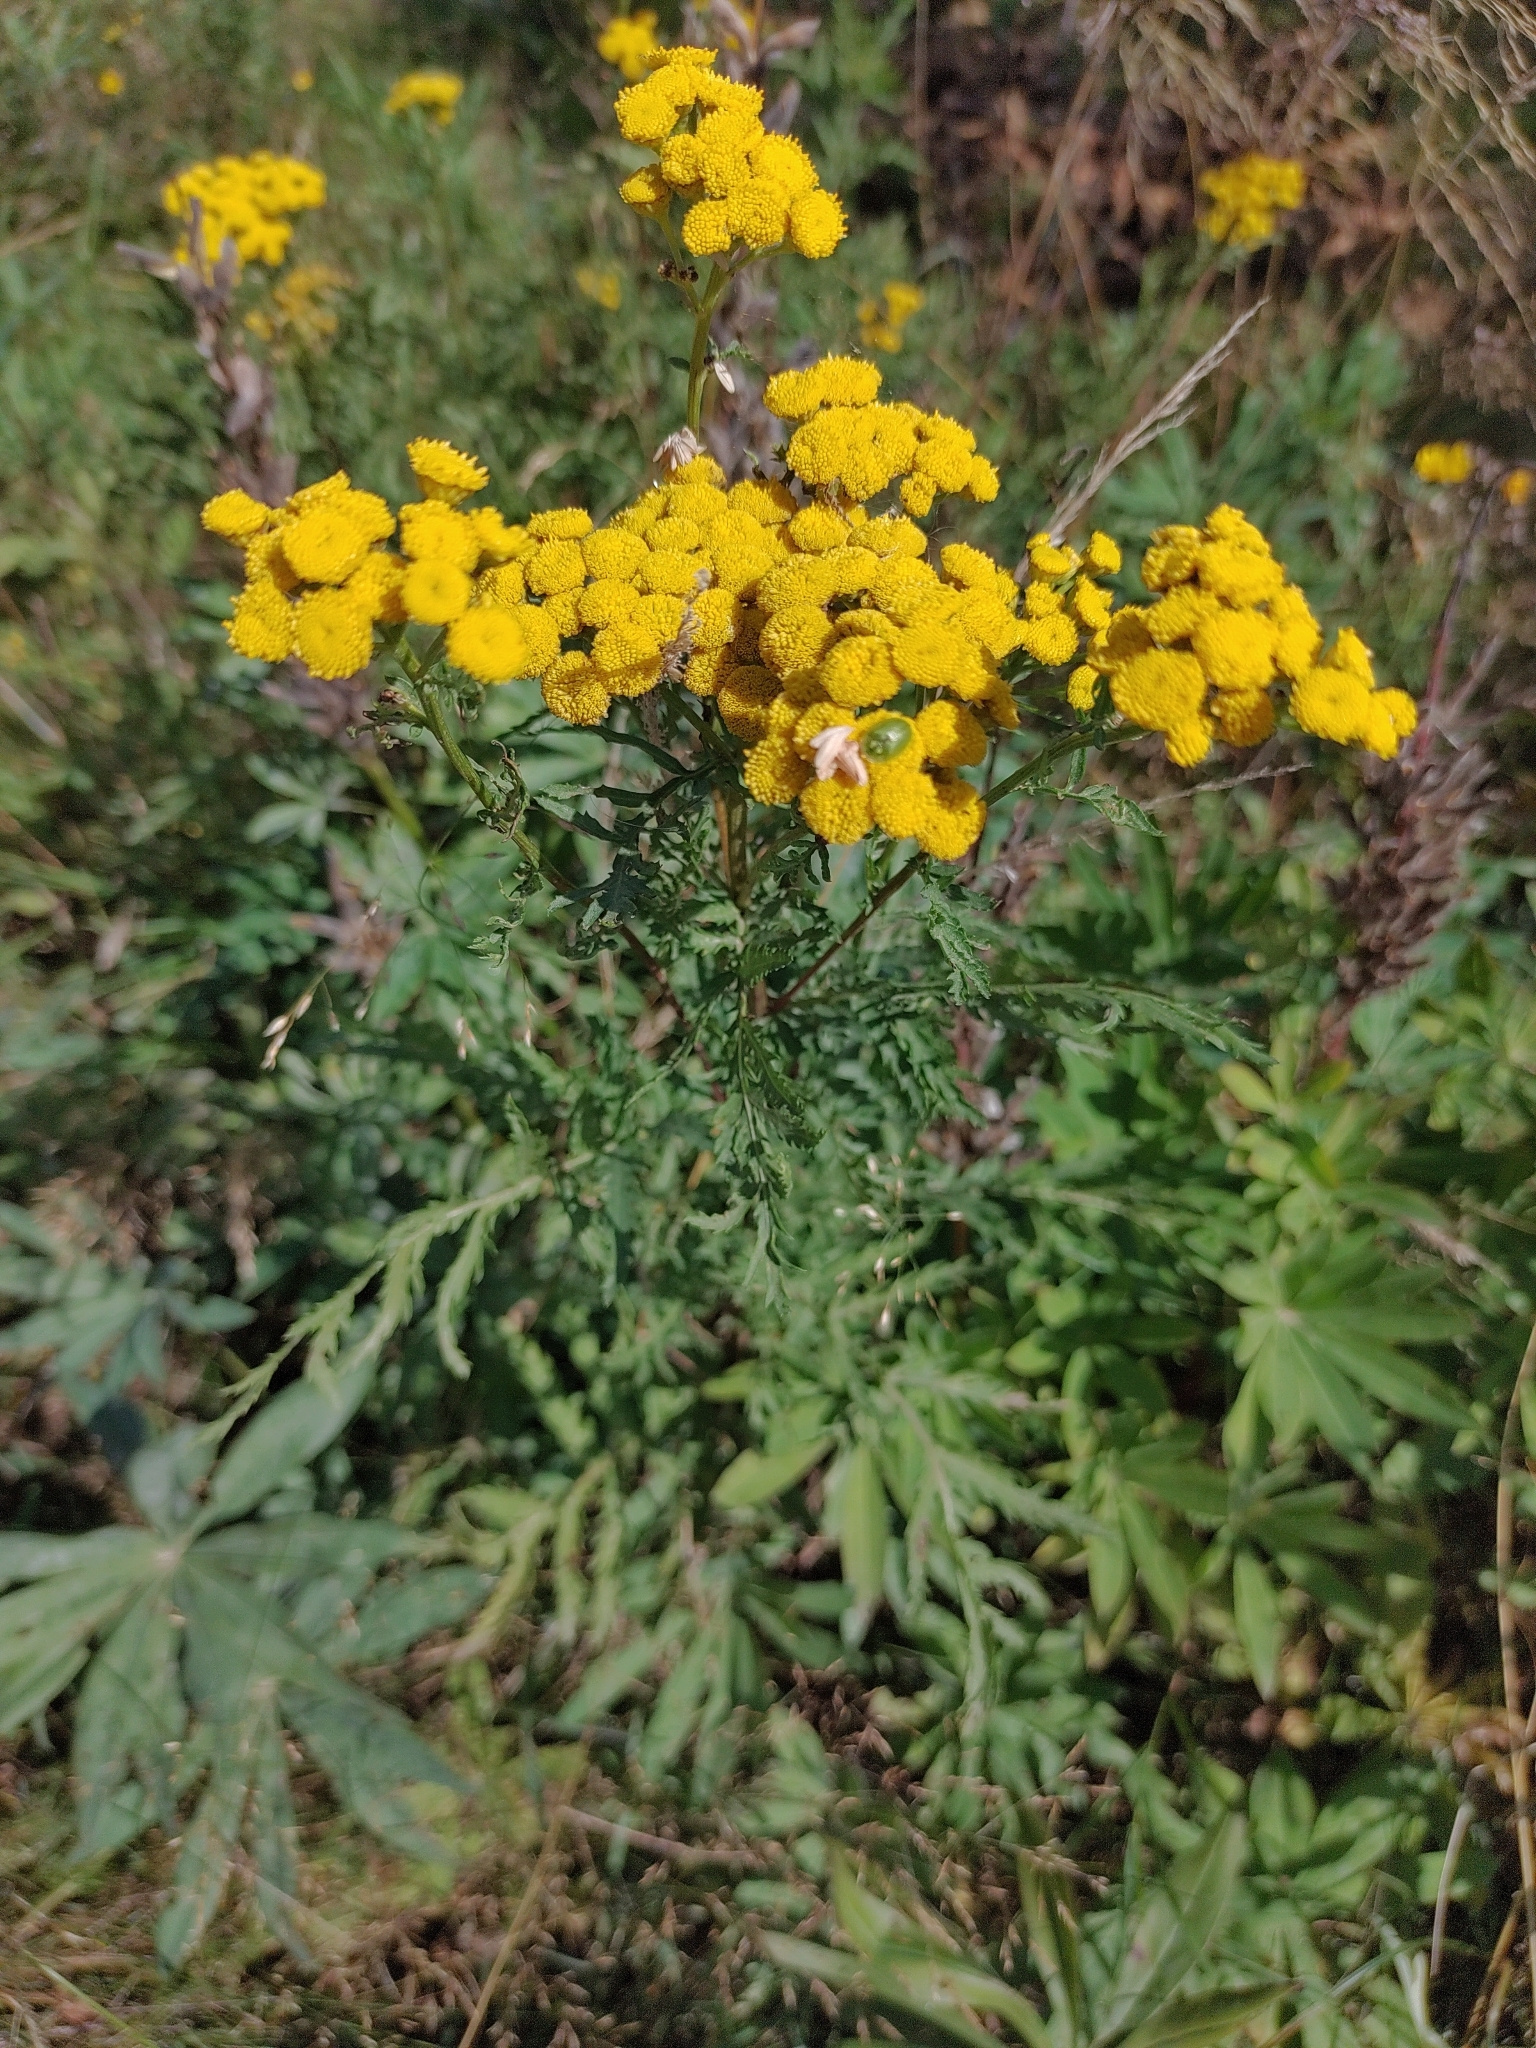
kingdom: Plantae
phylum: Tracheophyta
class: Magnoliopsida
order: Asterales
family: Asteraceae
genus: Tanacetum
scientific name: Tanacetum vulgare
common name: Common tansy
